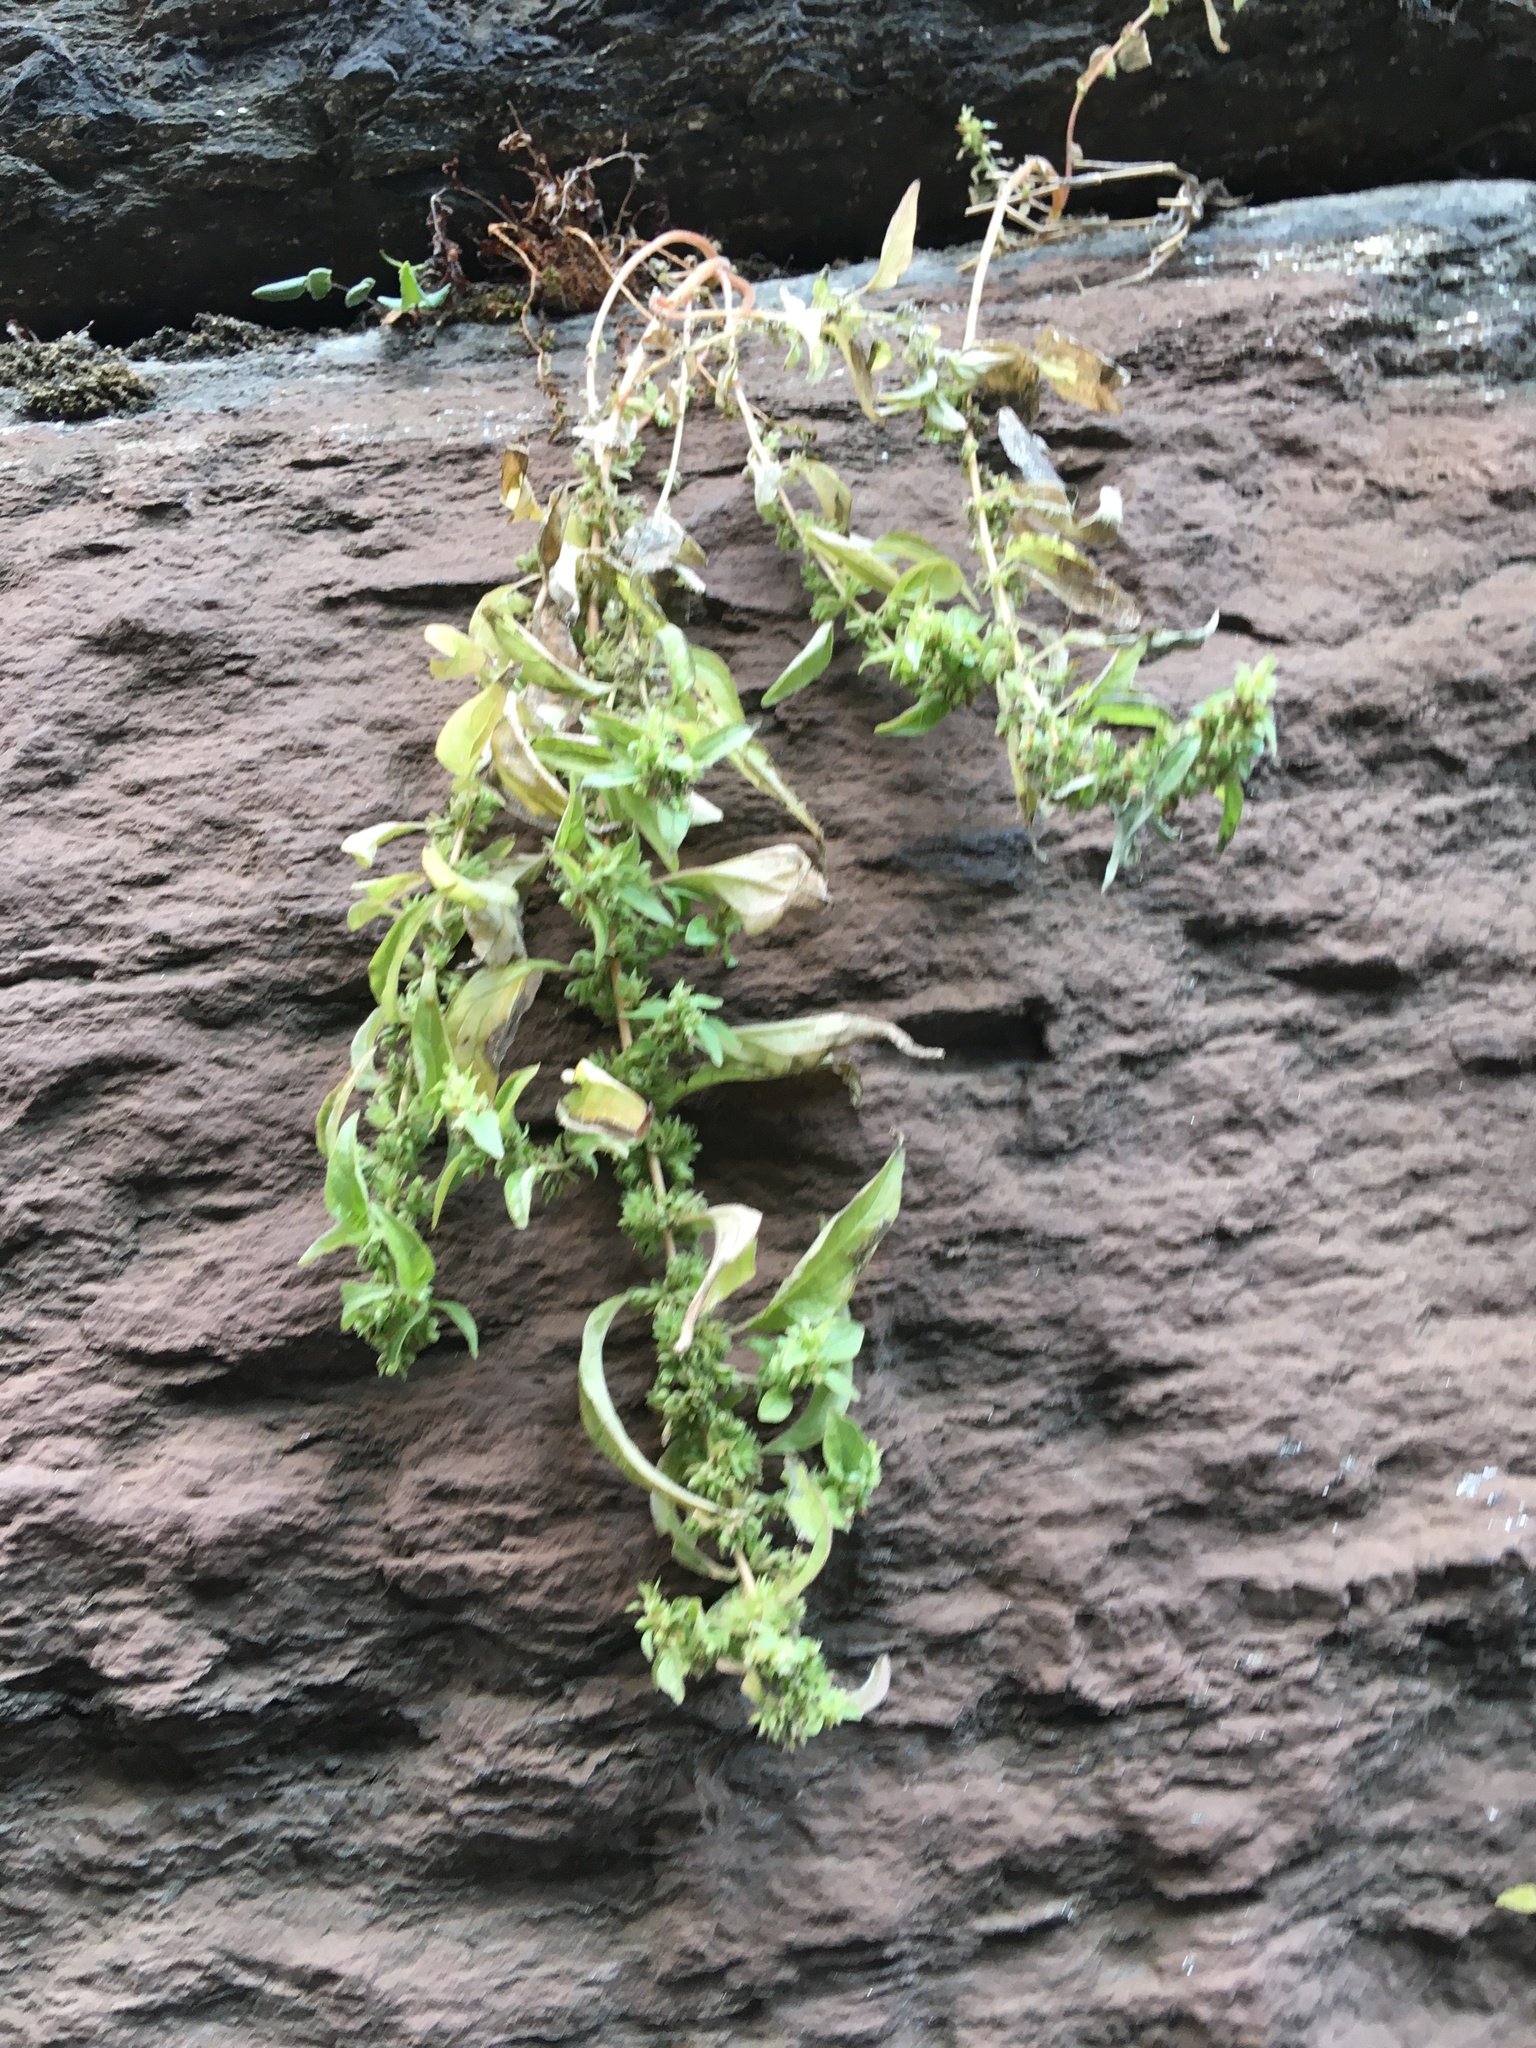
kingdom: Plantae
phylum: Tracheophyta
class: Magnoliopsida
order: Rosales
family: Urticaceae
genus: Parietaria
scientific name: Parietaria pensylvanica
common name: Pennsylvania pellitory
